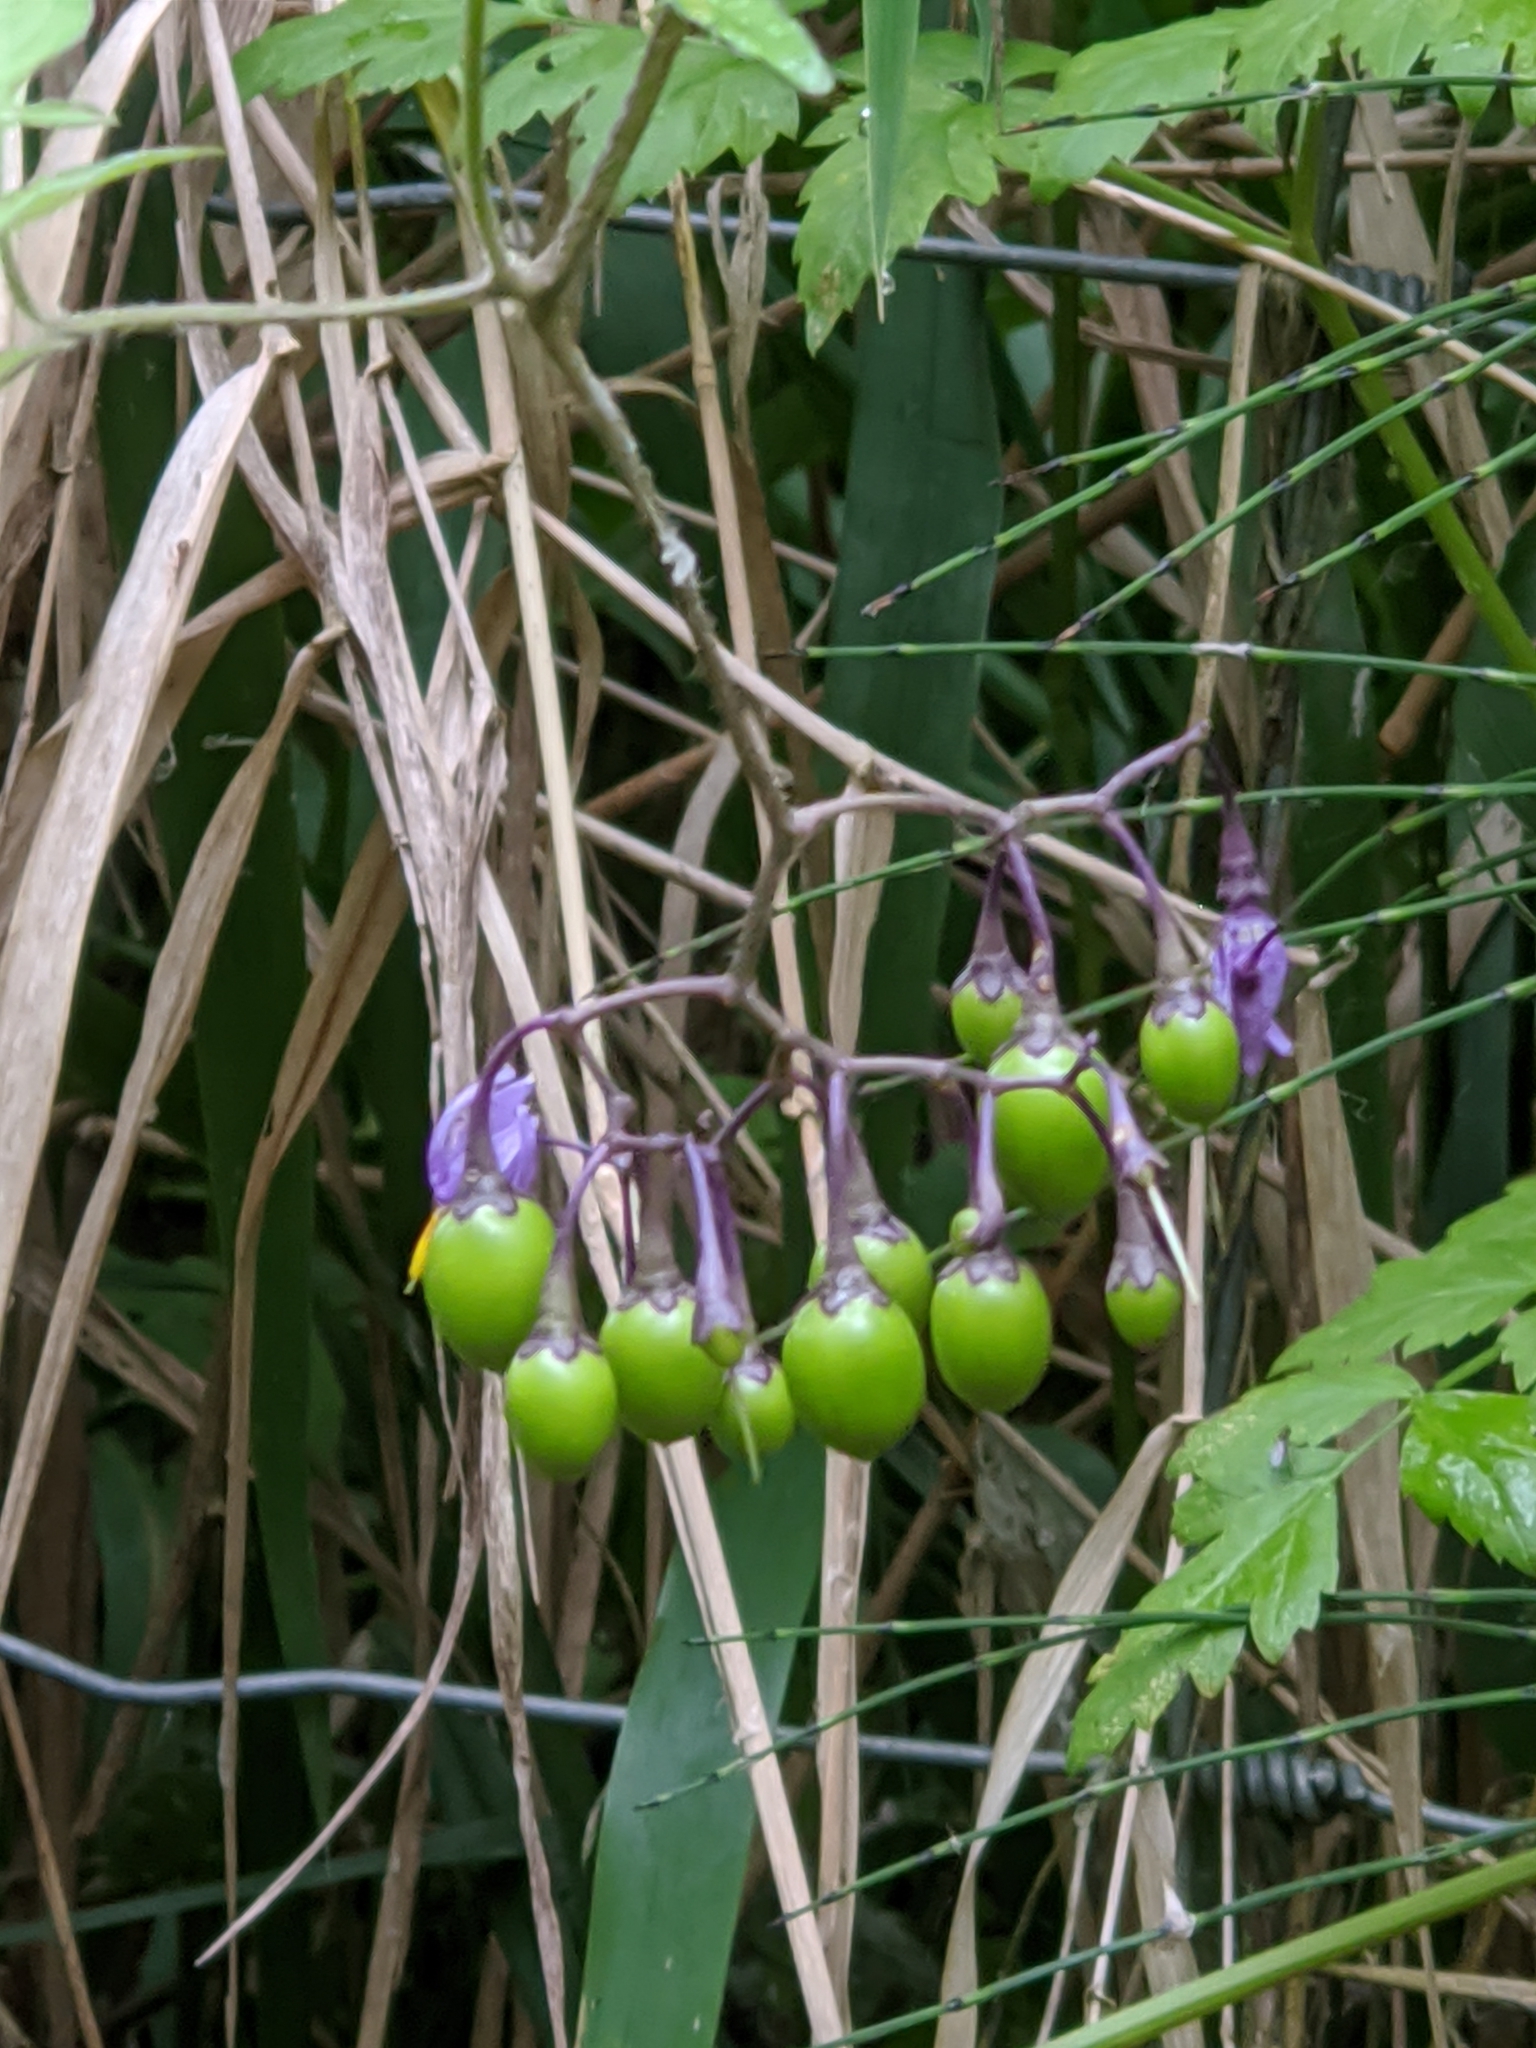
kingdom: Plantae
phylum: Tracheophyta
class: Magnoliopsida
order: Solanales
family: Solanaceae
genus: Solanum
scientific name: Solanum dulcamara
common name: Climbing nightshade
